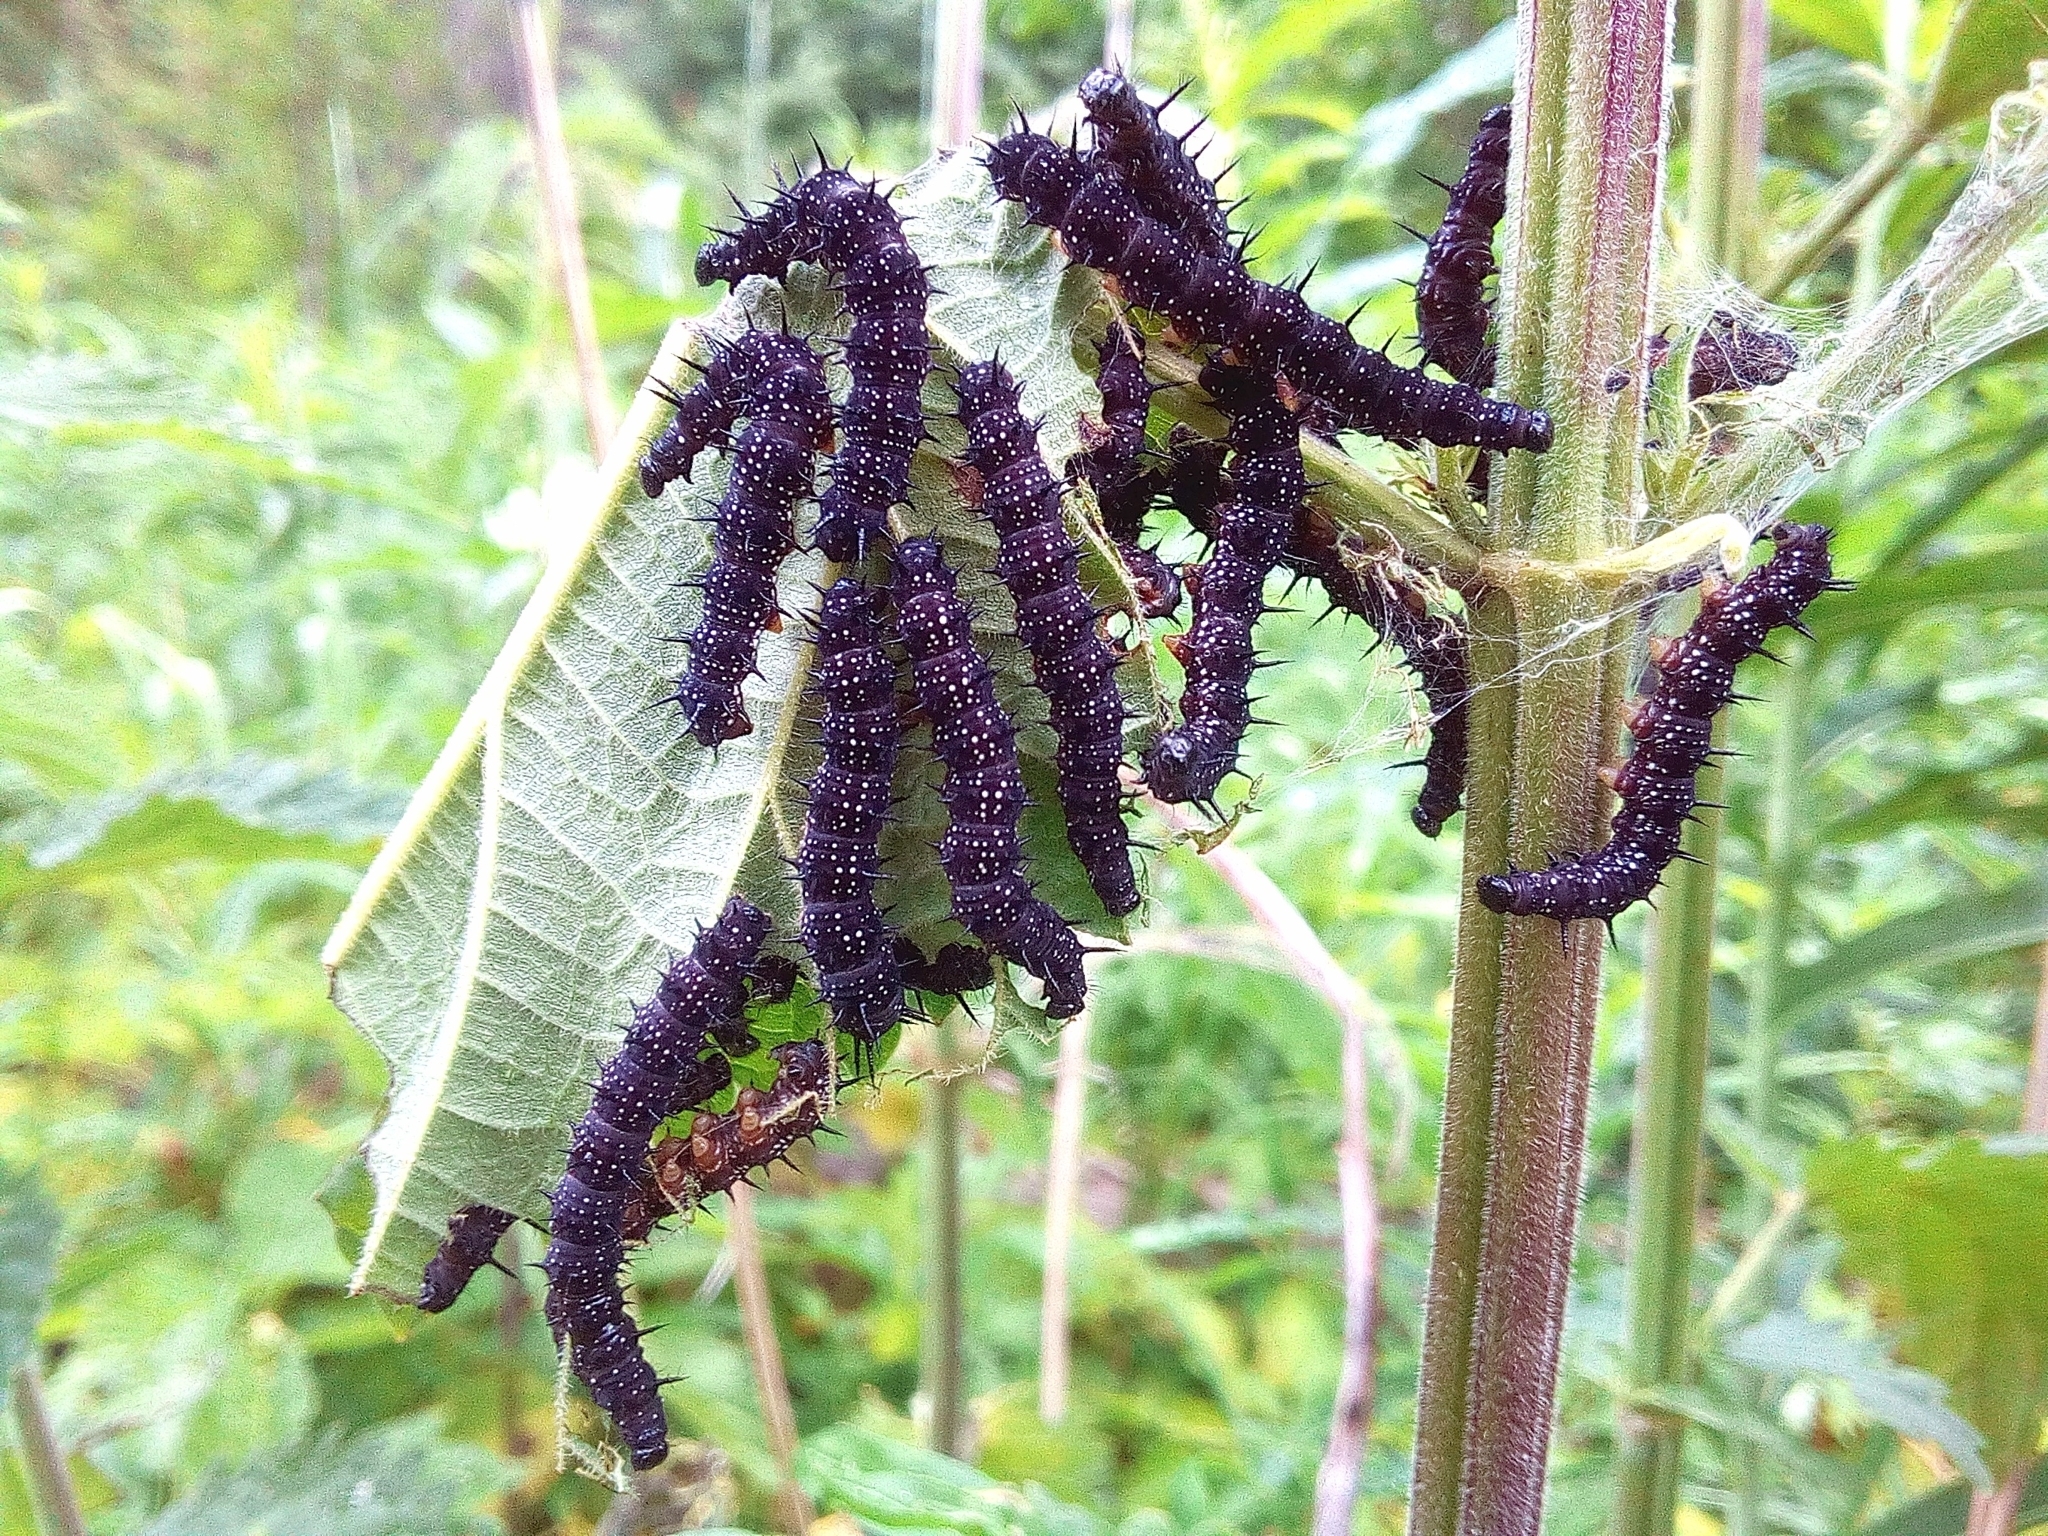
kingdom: Animalia
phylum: Arthropoda
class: Insecta
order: Lepidoptera
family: Nymphalidae
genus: Aglais
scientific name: Aglais io
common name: Peacock
